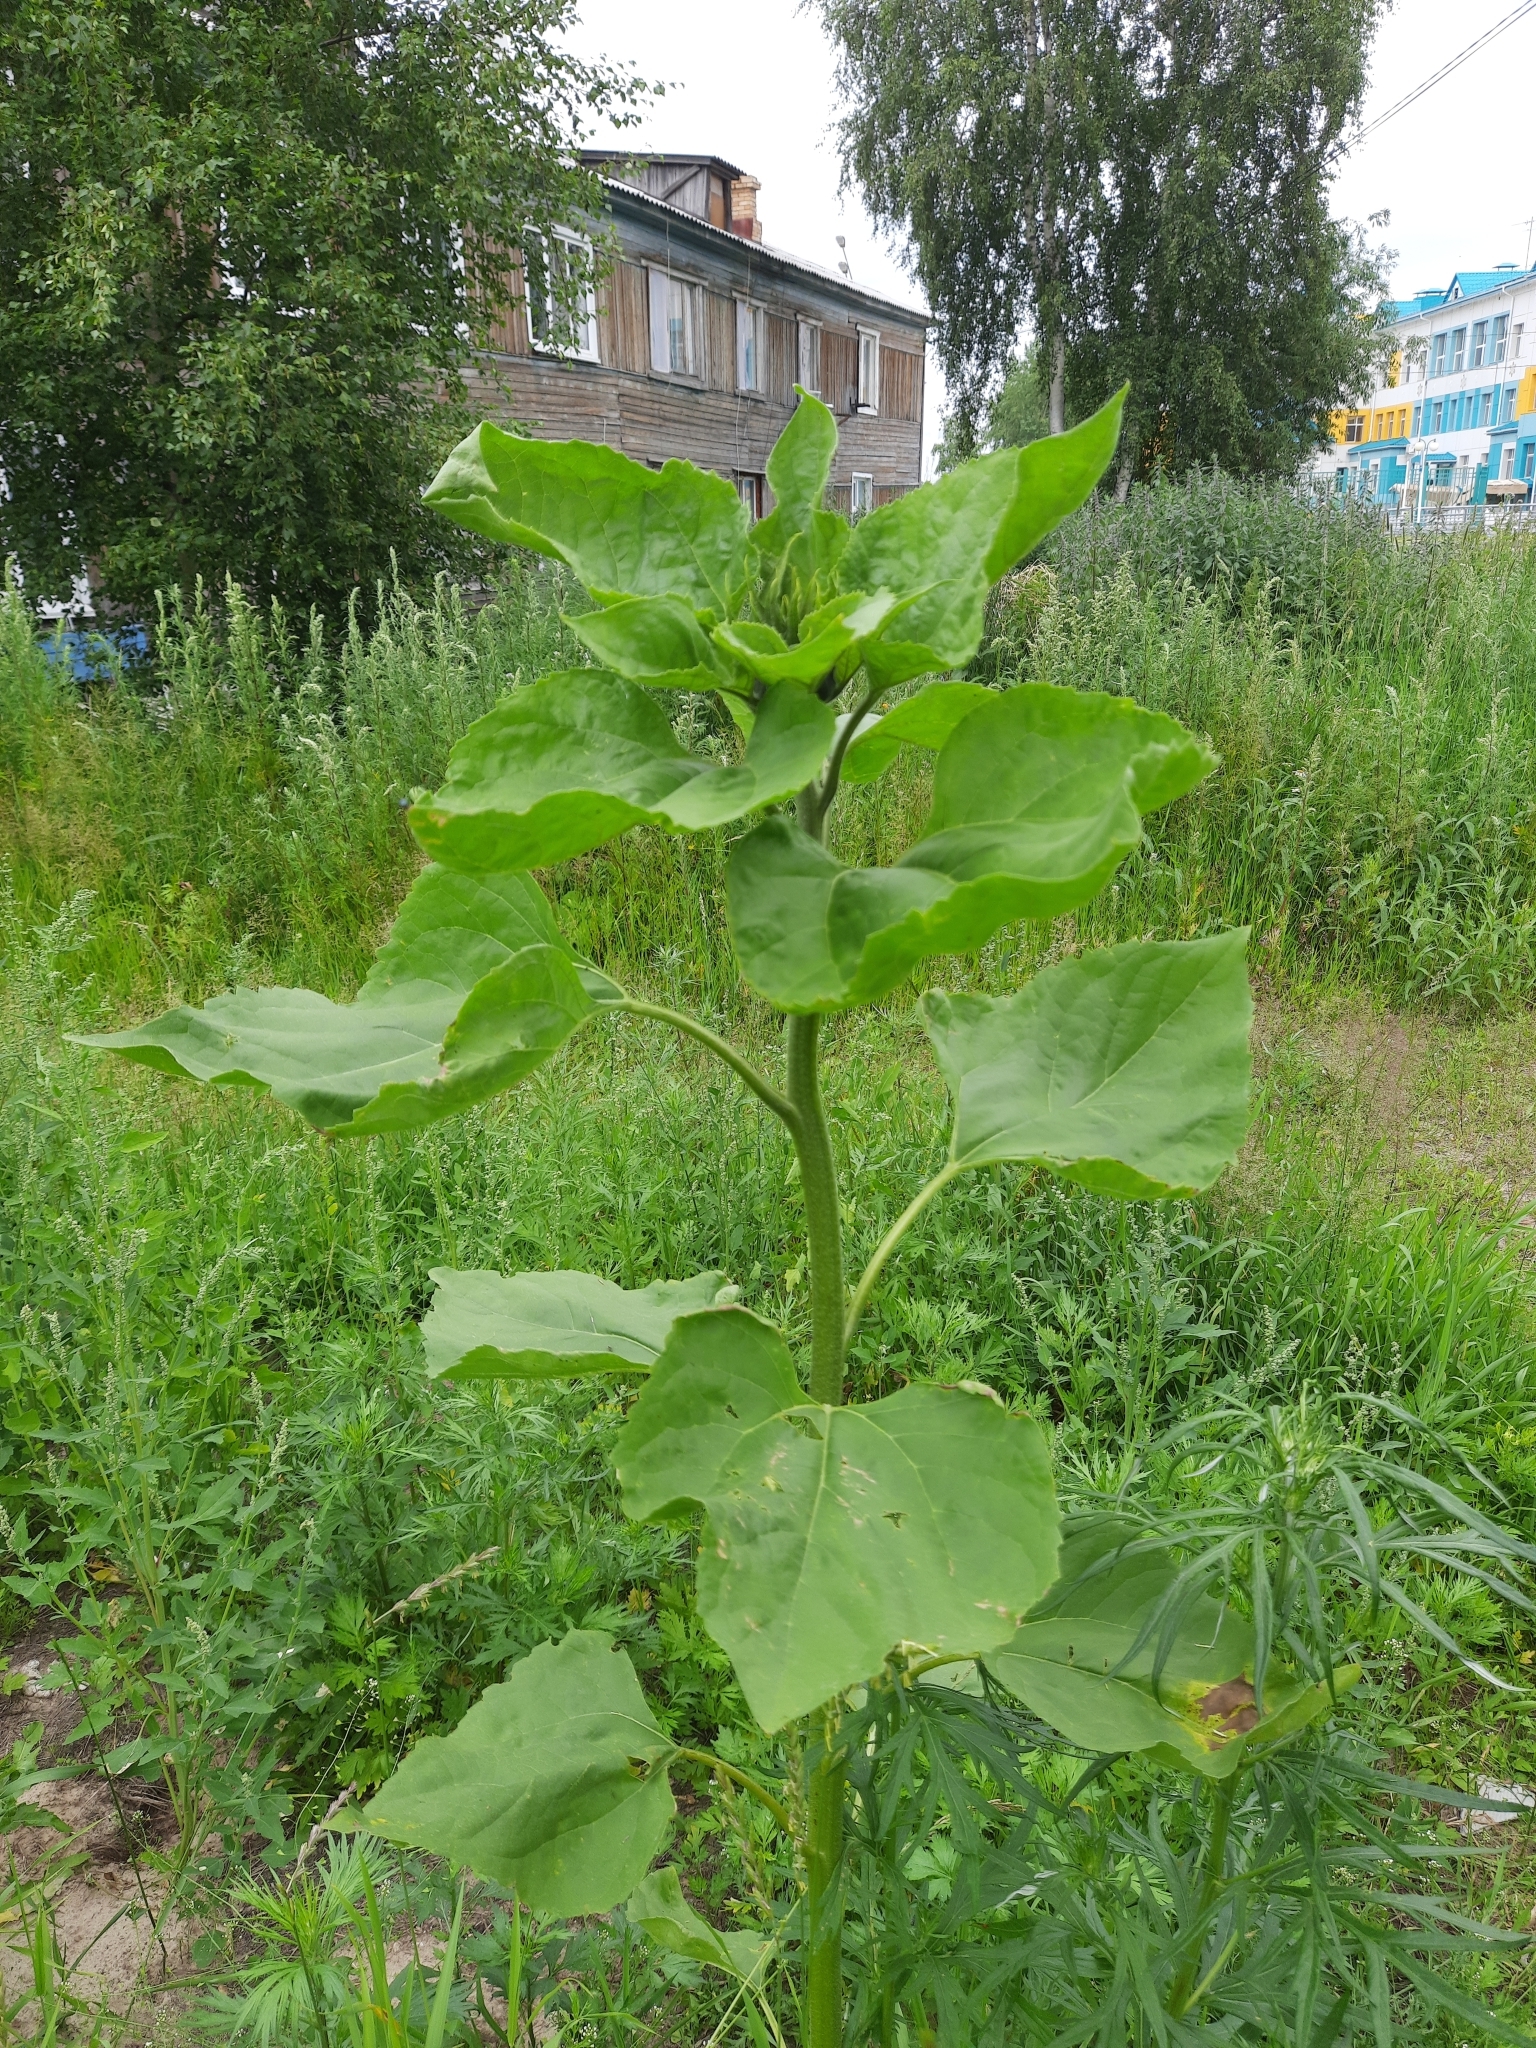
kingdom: Plantae
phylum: Tracheophyta
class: Magnoliopsida
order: Asterales
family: Asteraceae
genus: Helianthus
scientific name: Helianthus annuus
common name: Sunflower
